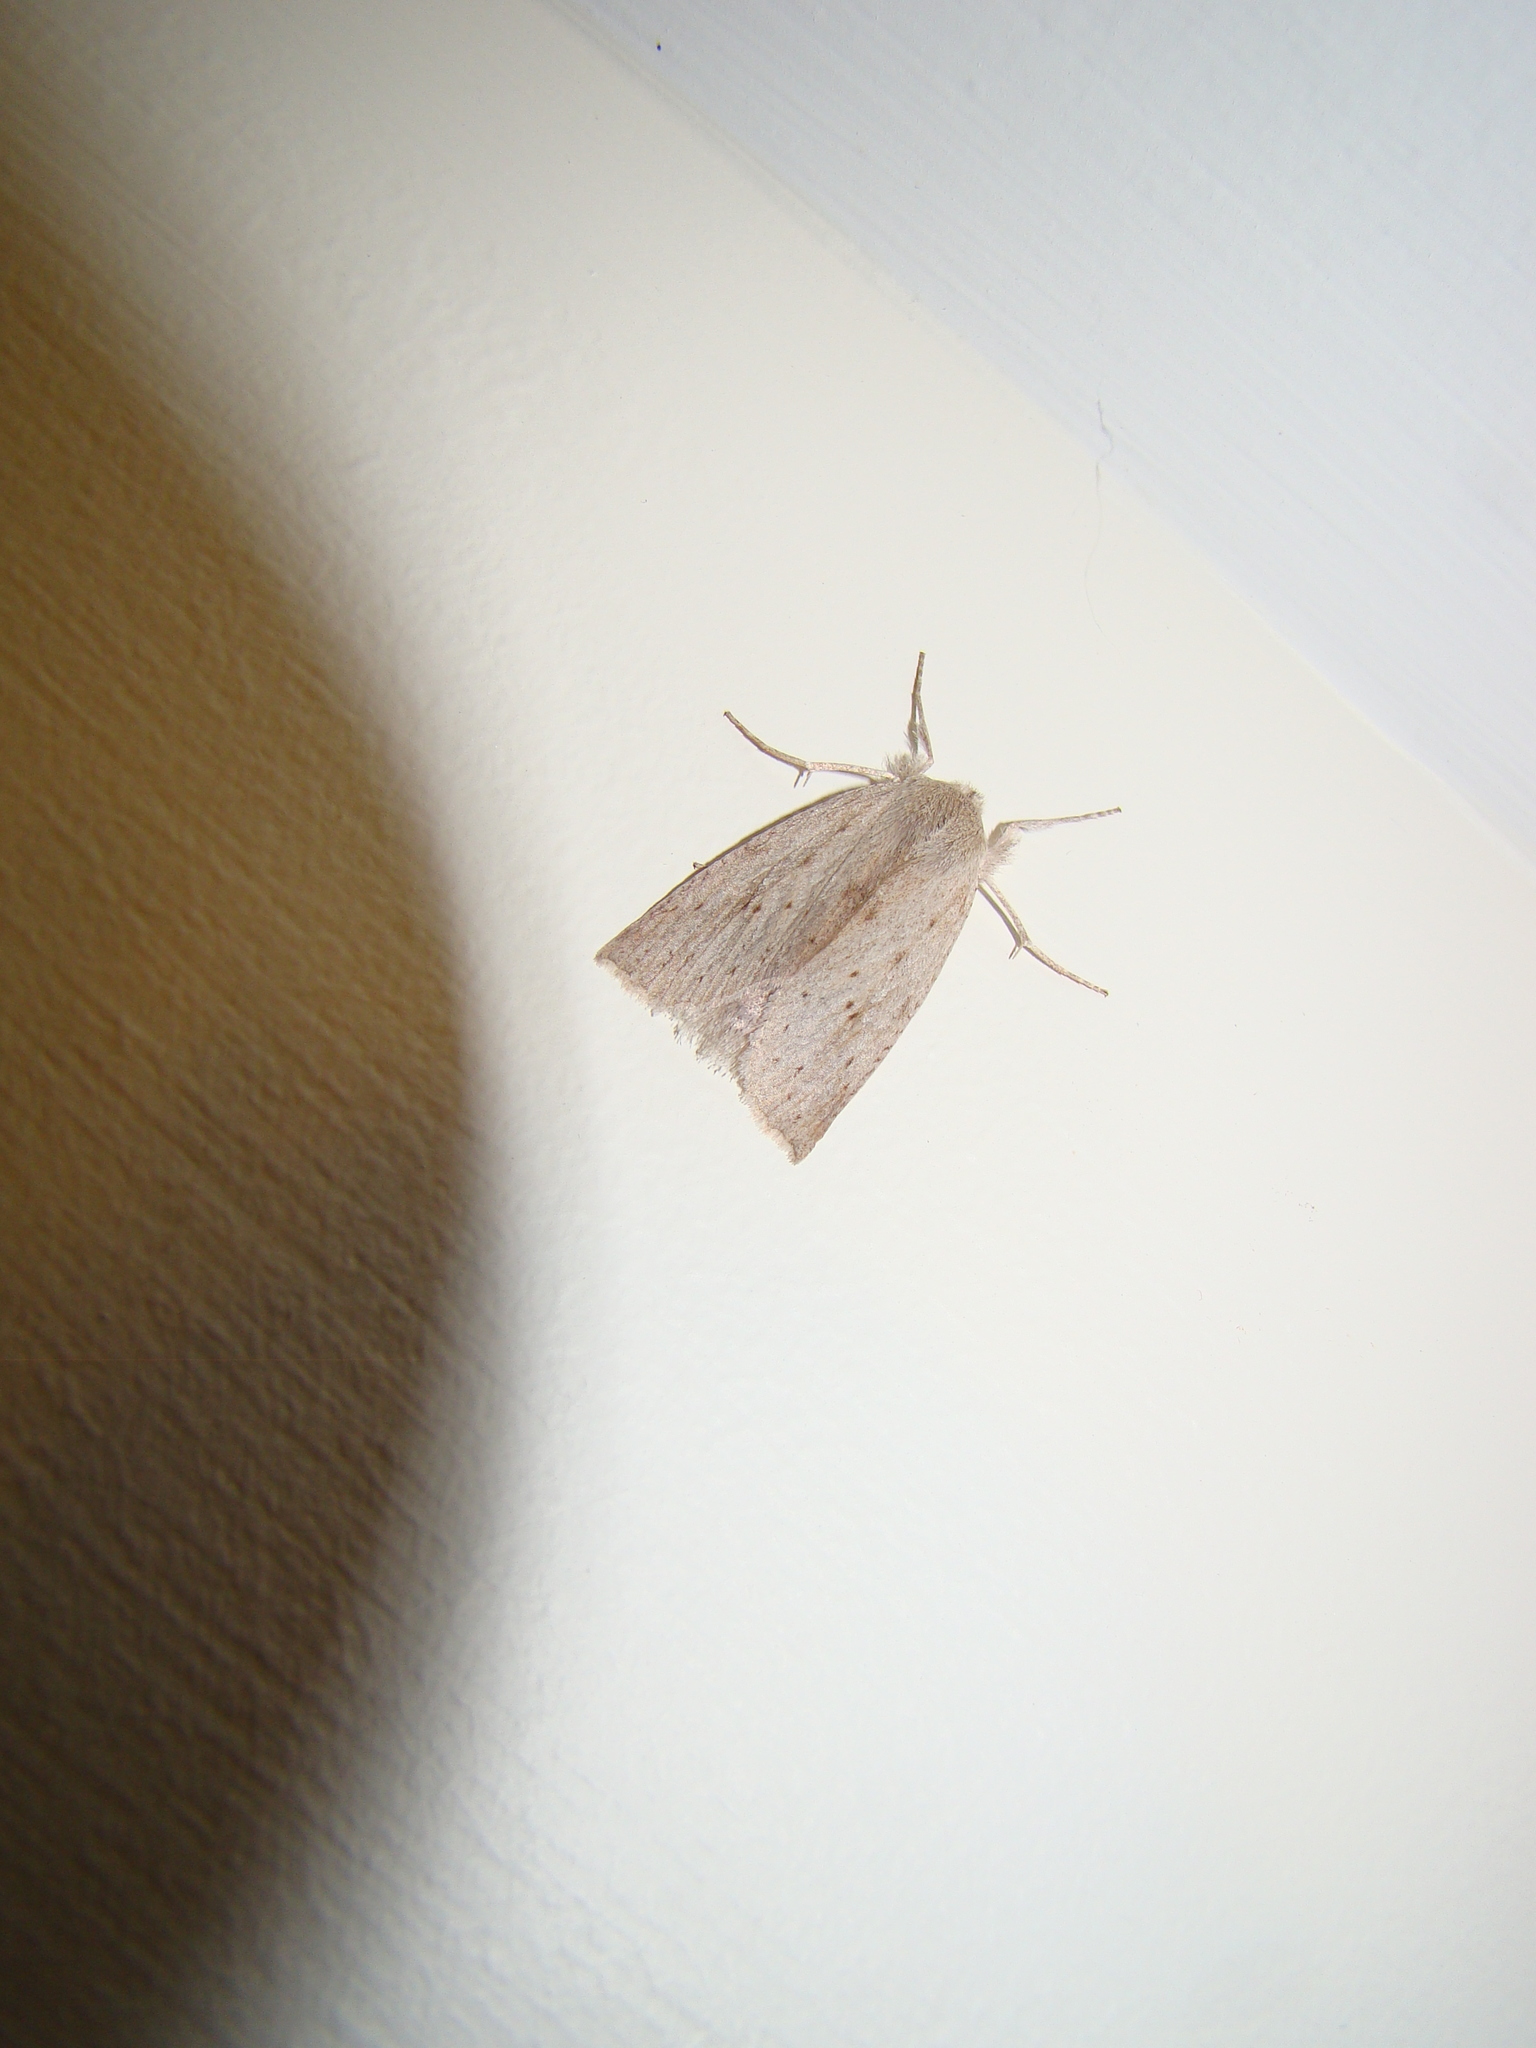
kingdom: Animalia
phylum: Arthropoda
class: Insecta
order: Lepidoptera
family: Geometridae
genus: Declana
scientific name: Declana leptomera
